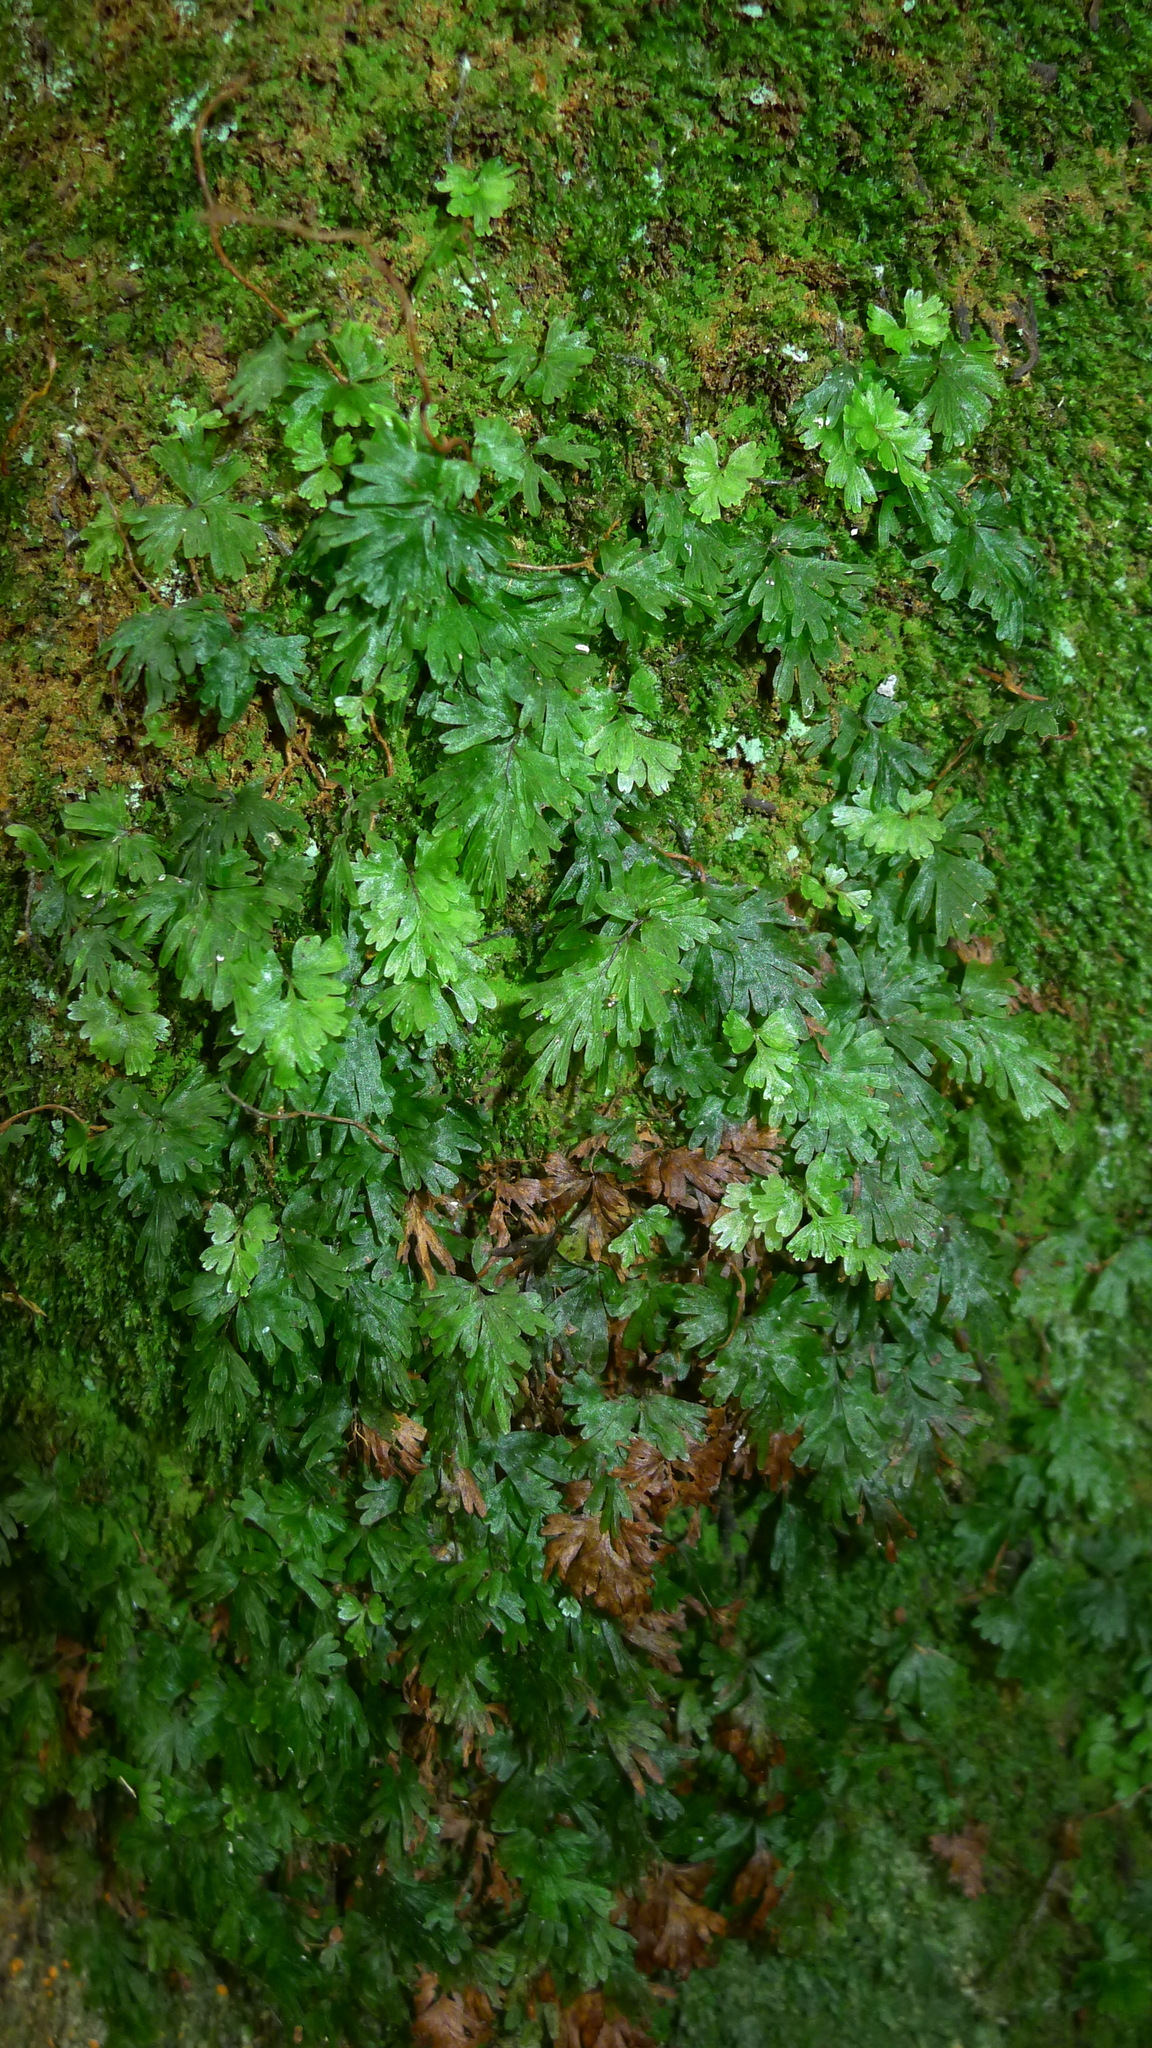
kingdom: Plantae
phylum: Tracheophyta
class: Polypodiopsida
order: Hymenophyllales
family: Hymenophyllaceae
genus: Hymenophyllum
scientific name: Hymenophyllum flabellatum
